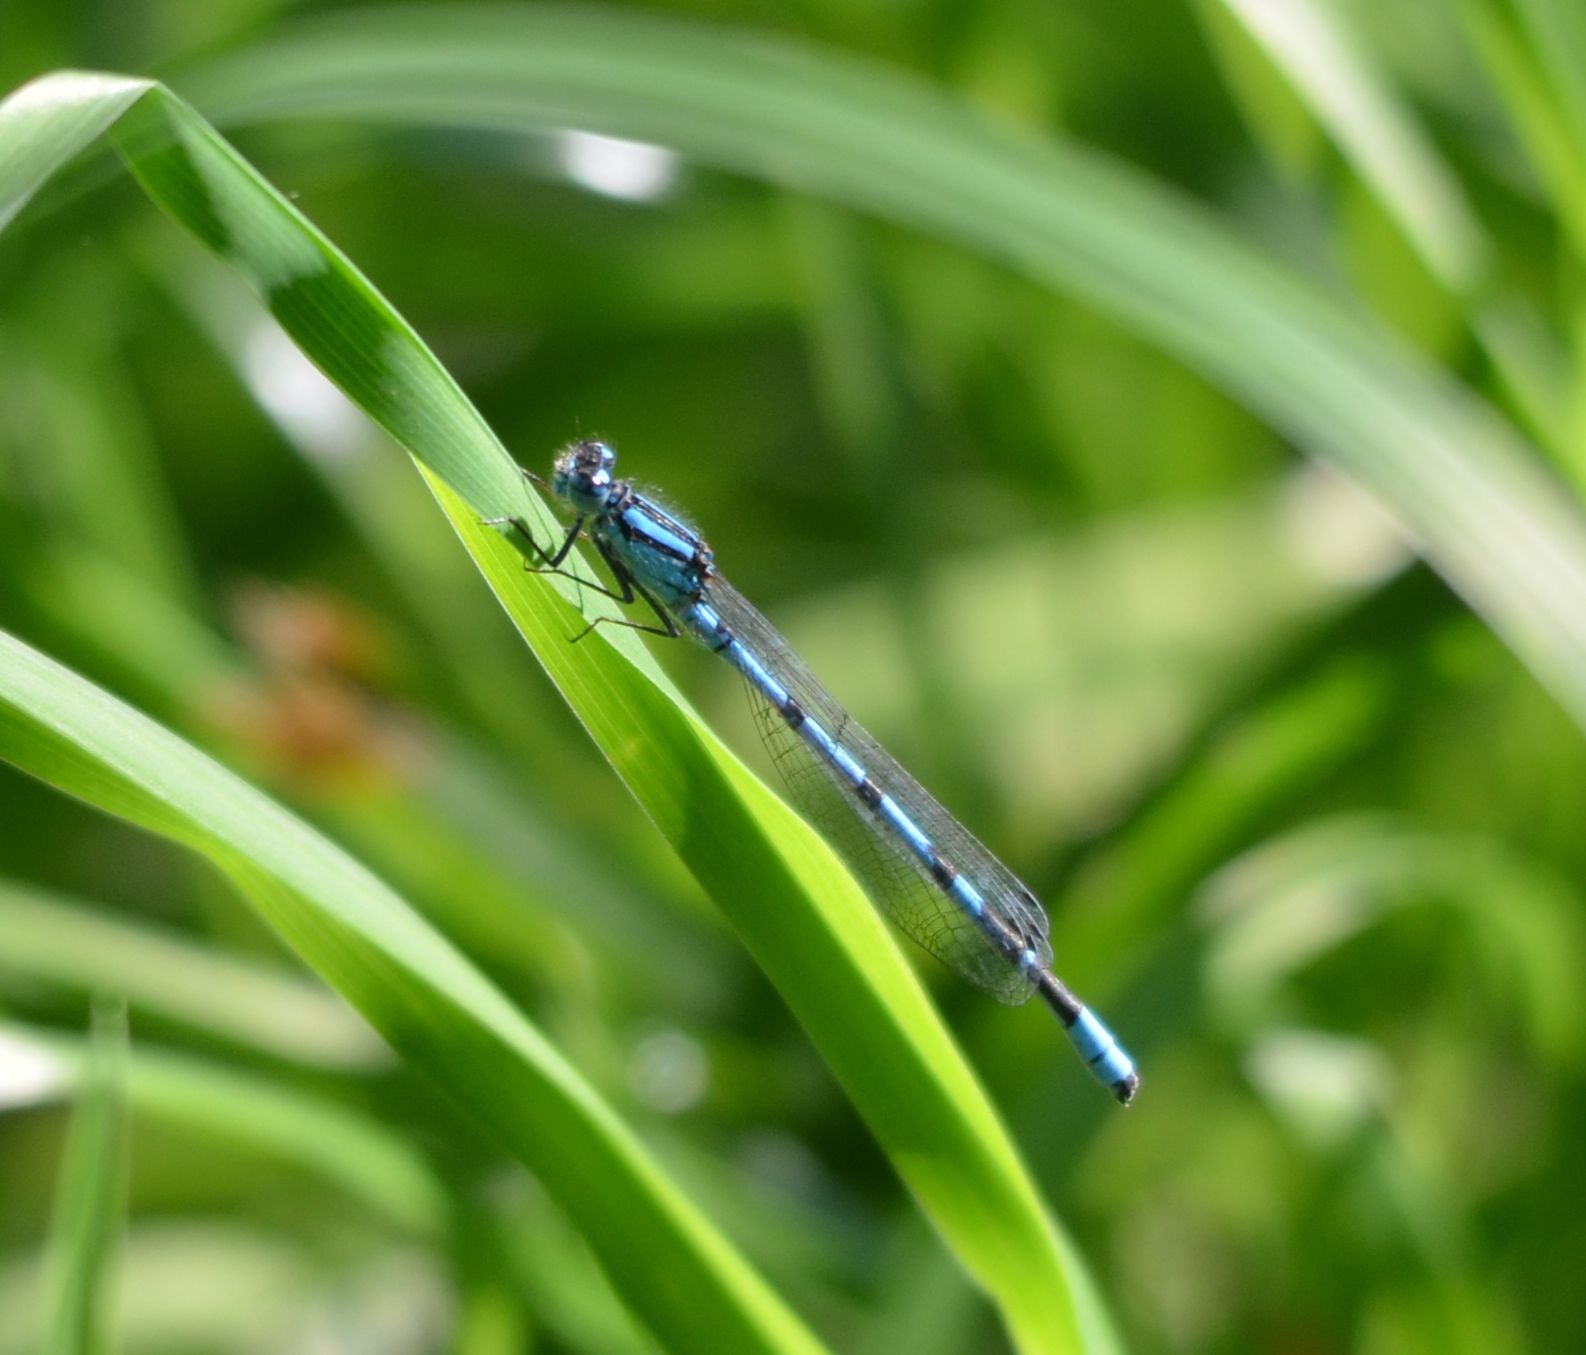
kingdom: Animalia
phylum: Arthropoda
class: Insecta
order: Odonata
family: Coenagrionidae
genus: Enallagma
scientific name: Enallagma cyathigerum
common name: Common blue damselfly
